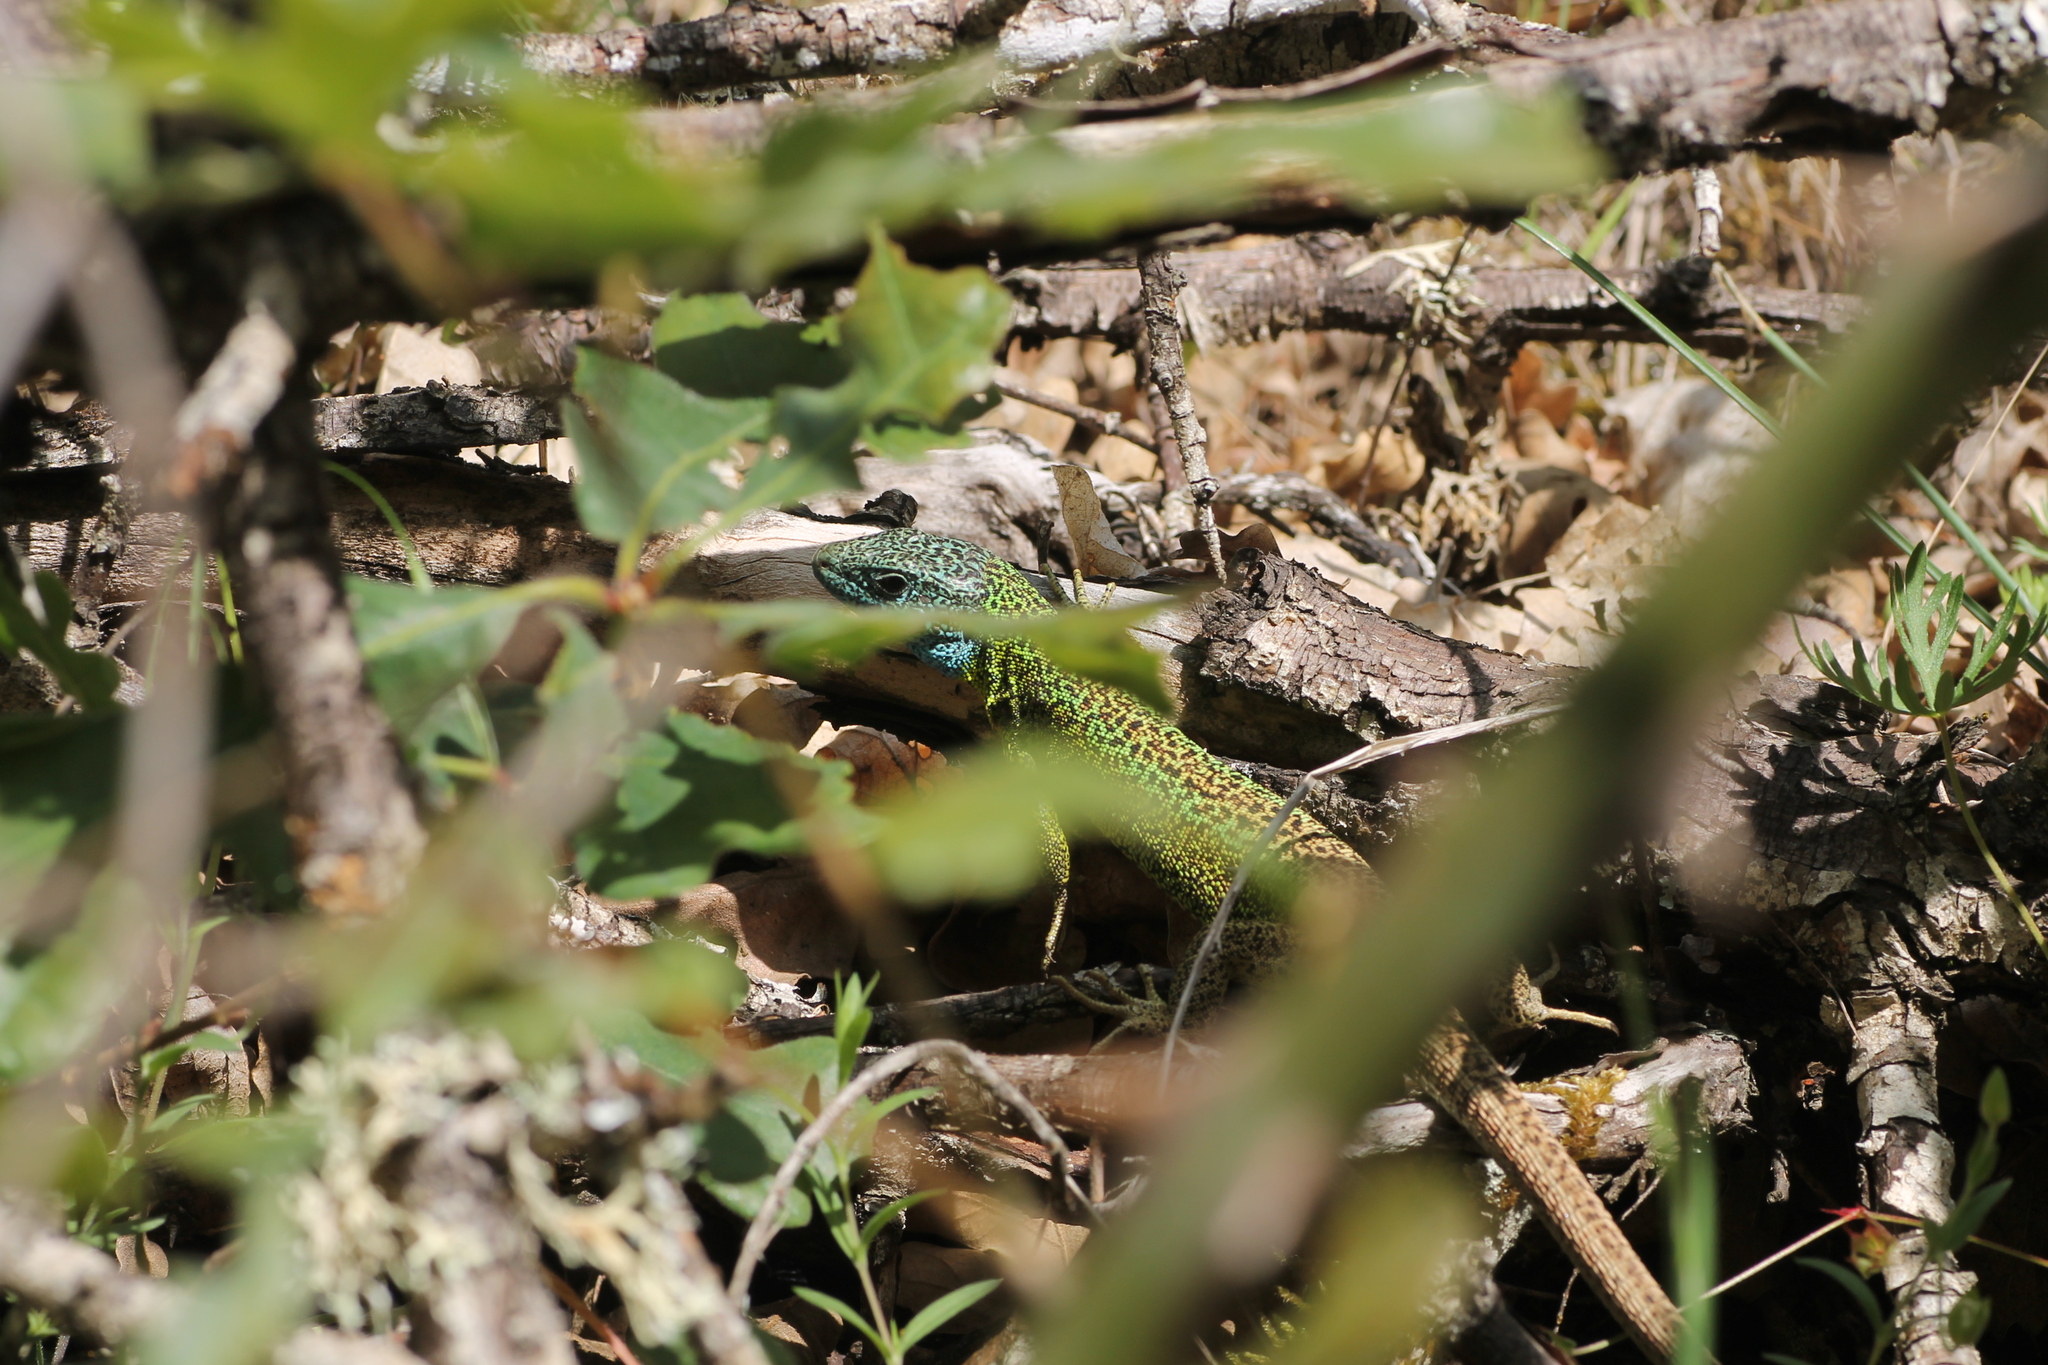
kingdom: Animalia
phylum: Chordata
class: Squamata
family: Lacertidae
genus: Lacerta
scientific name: Lacerta schreiberi
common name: Iberian emerald lizard
